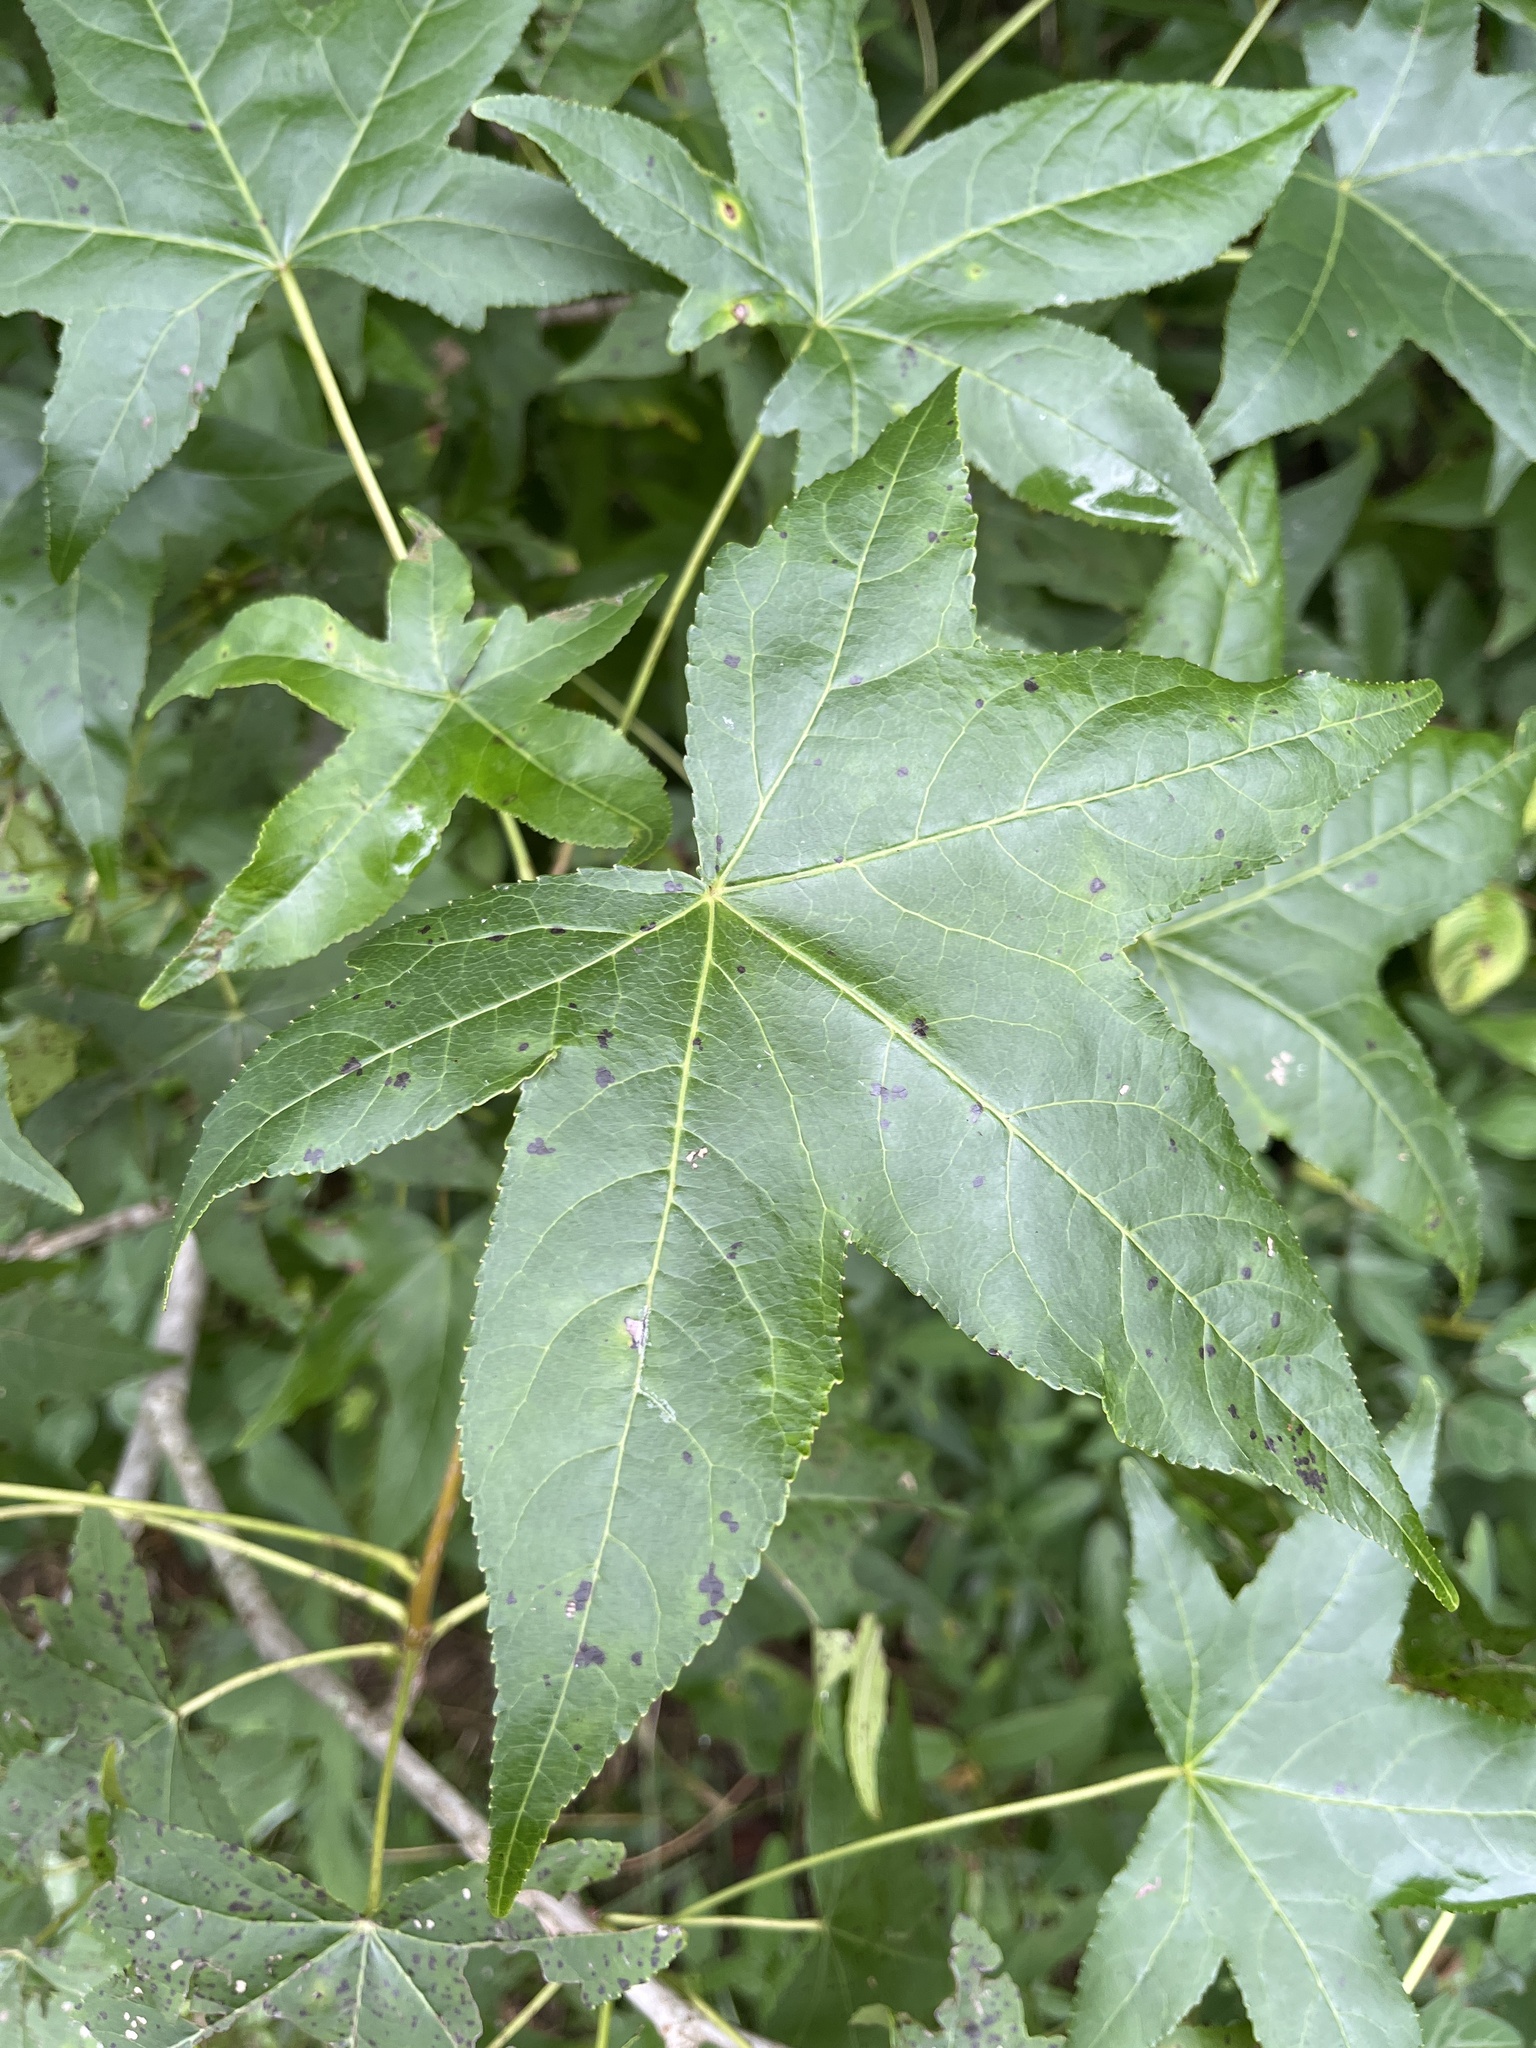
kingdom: Plantae
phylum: Tracheophyta
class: Magnoliopsida
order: Saxifragales
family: Altingiaceae
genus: Liquidambar
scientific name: Liquidambar styraciflua
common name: Sweet gum
